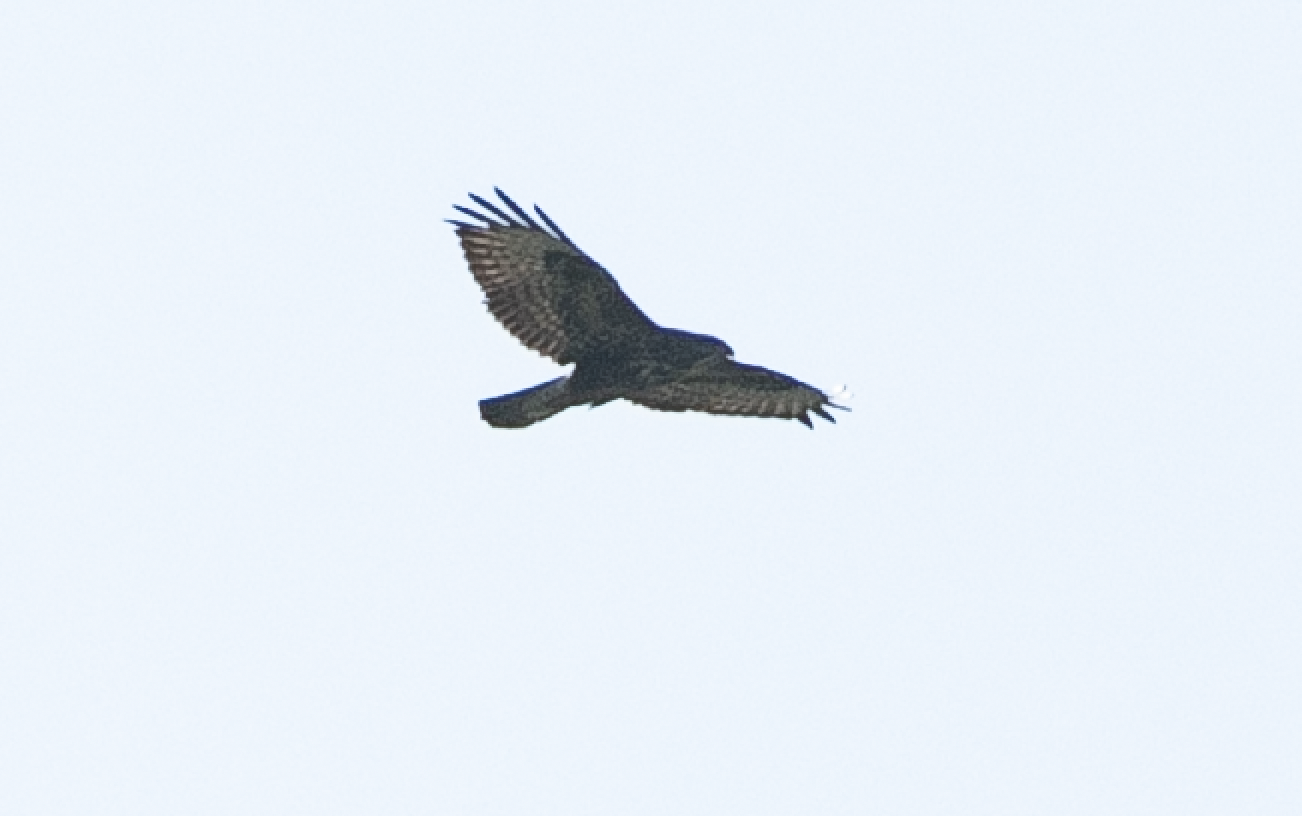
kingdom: Animalia
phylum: Chordata
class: Aves
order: Accipitriformes
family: Accipitridae
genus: Buteo
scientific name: Buteo buteo
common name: Common buzzard
